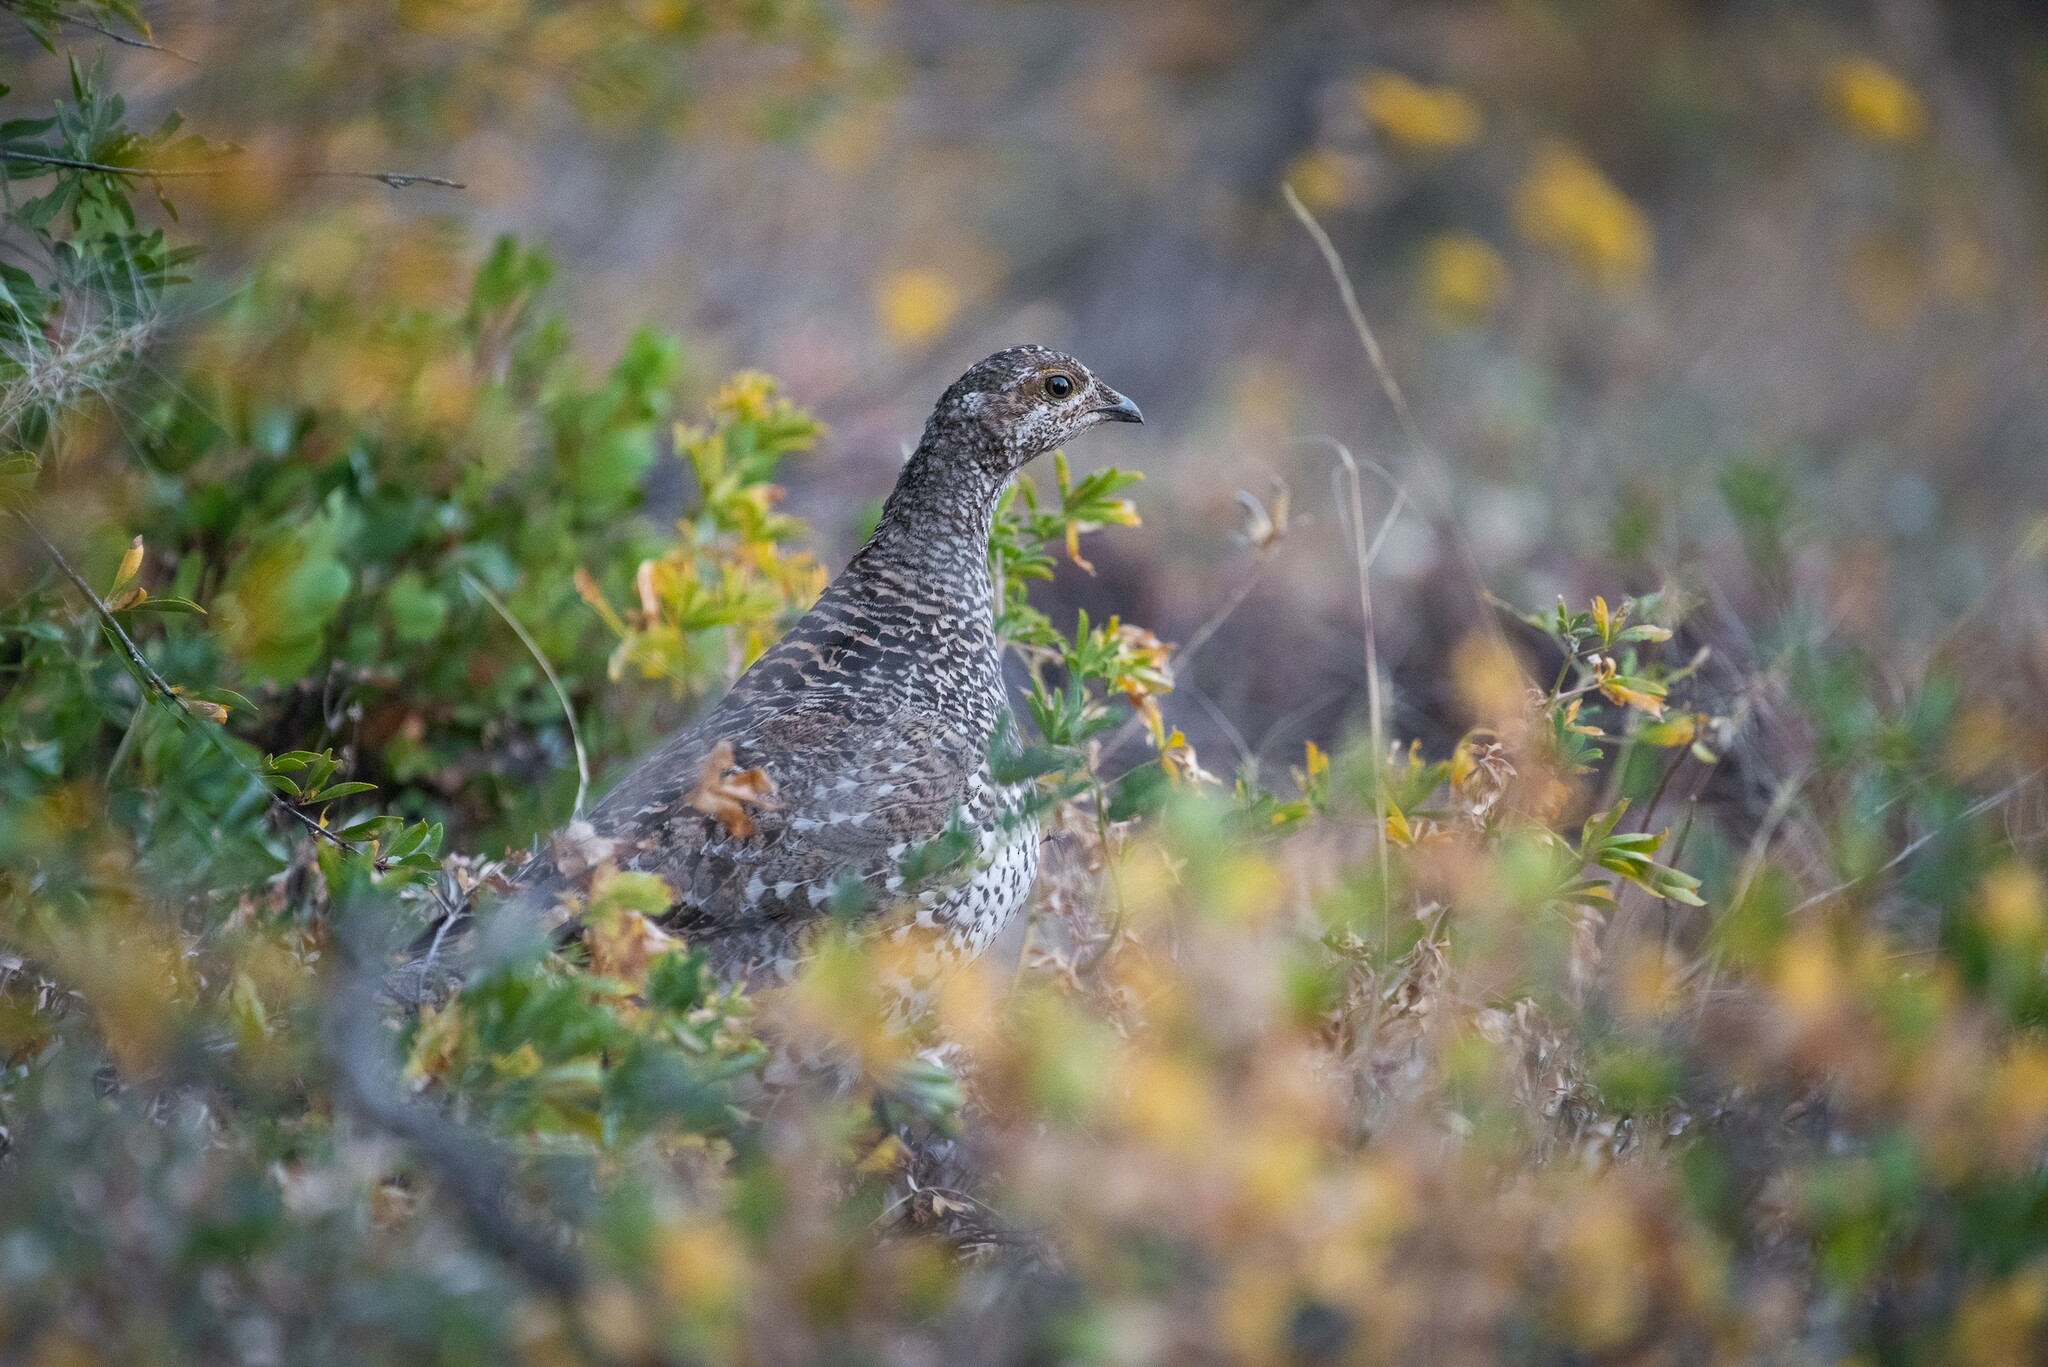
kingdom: Animalia
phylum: Chordata
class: Aves
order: Galliformes
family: Phasianidae
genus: Dendragapus
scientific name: Dendragapus fuliginosus
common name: Sooty grouse
